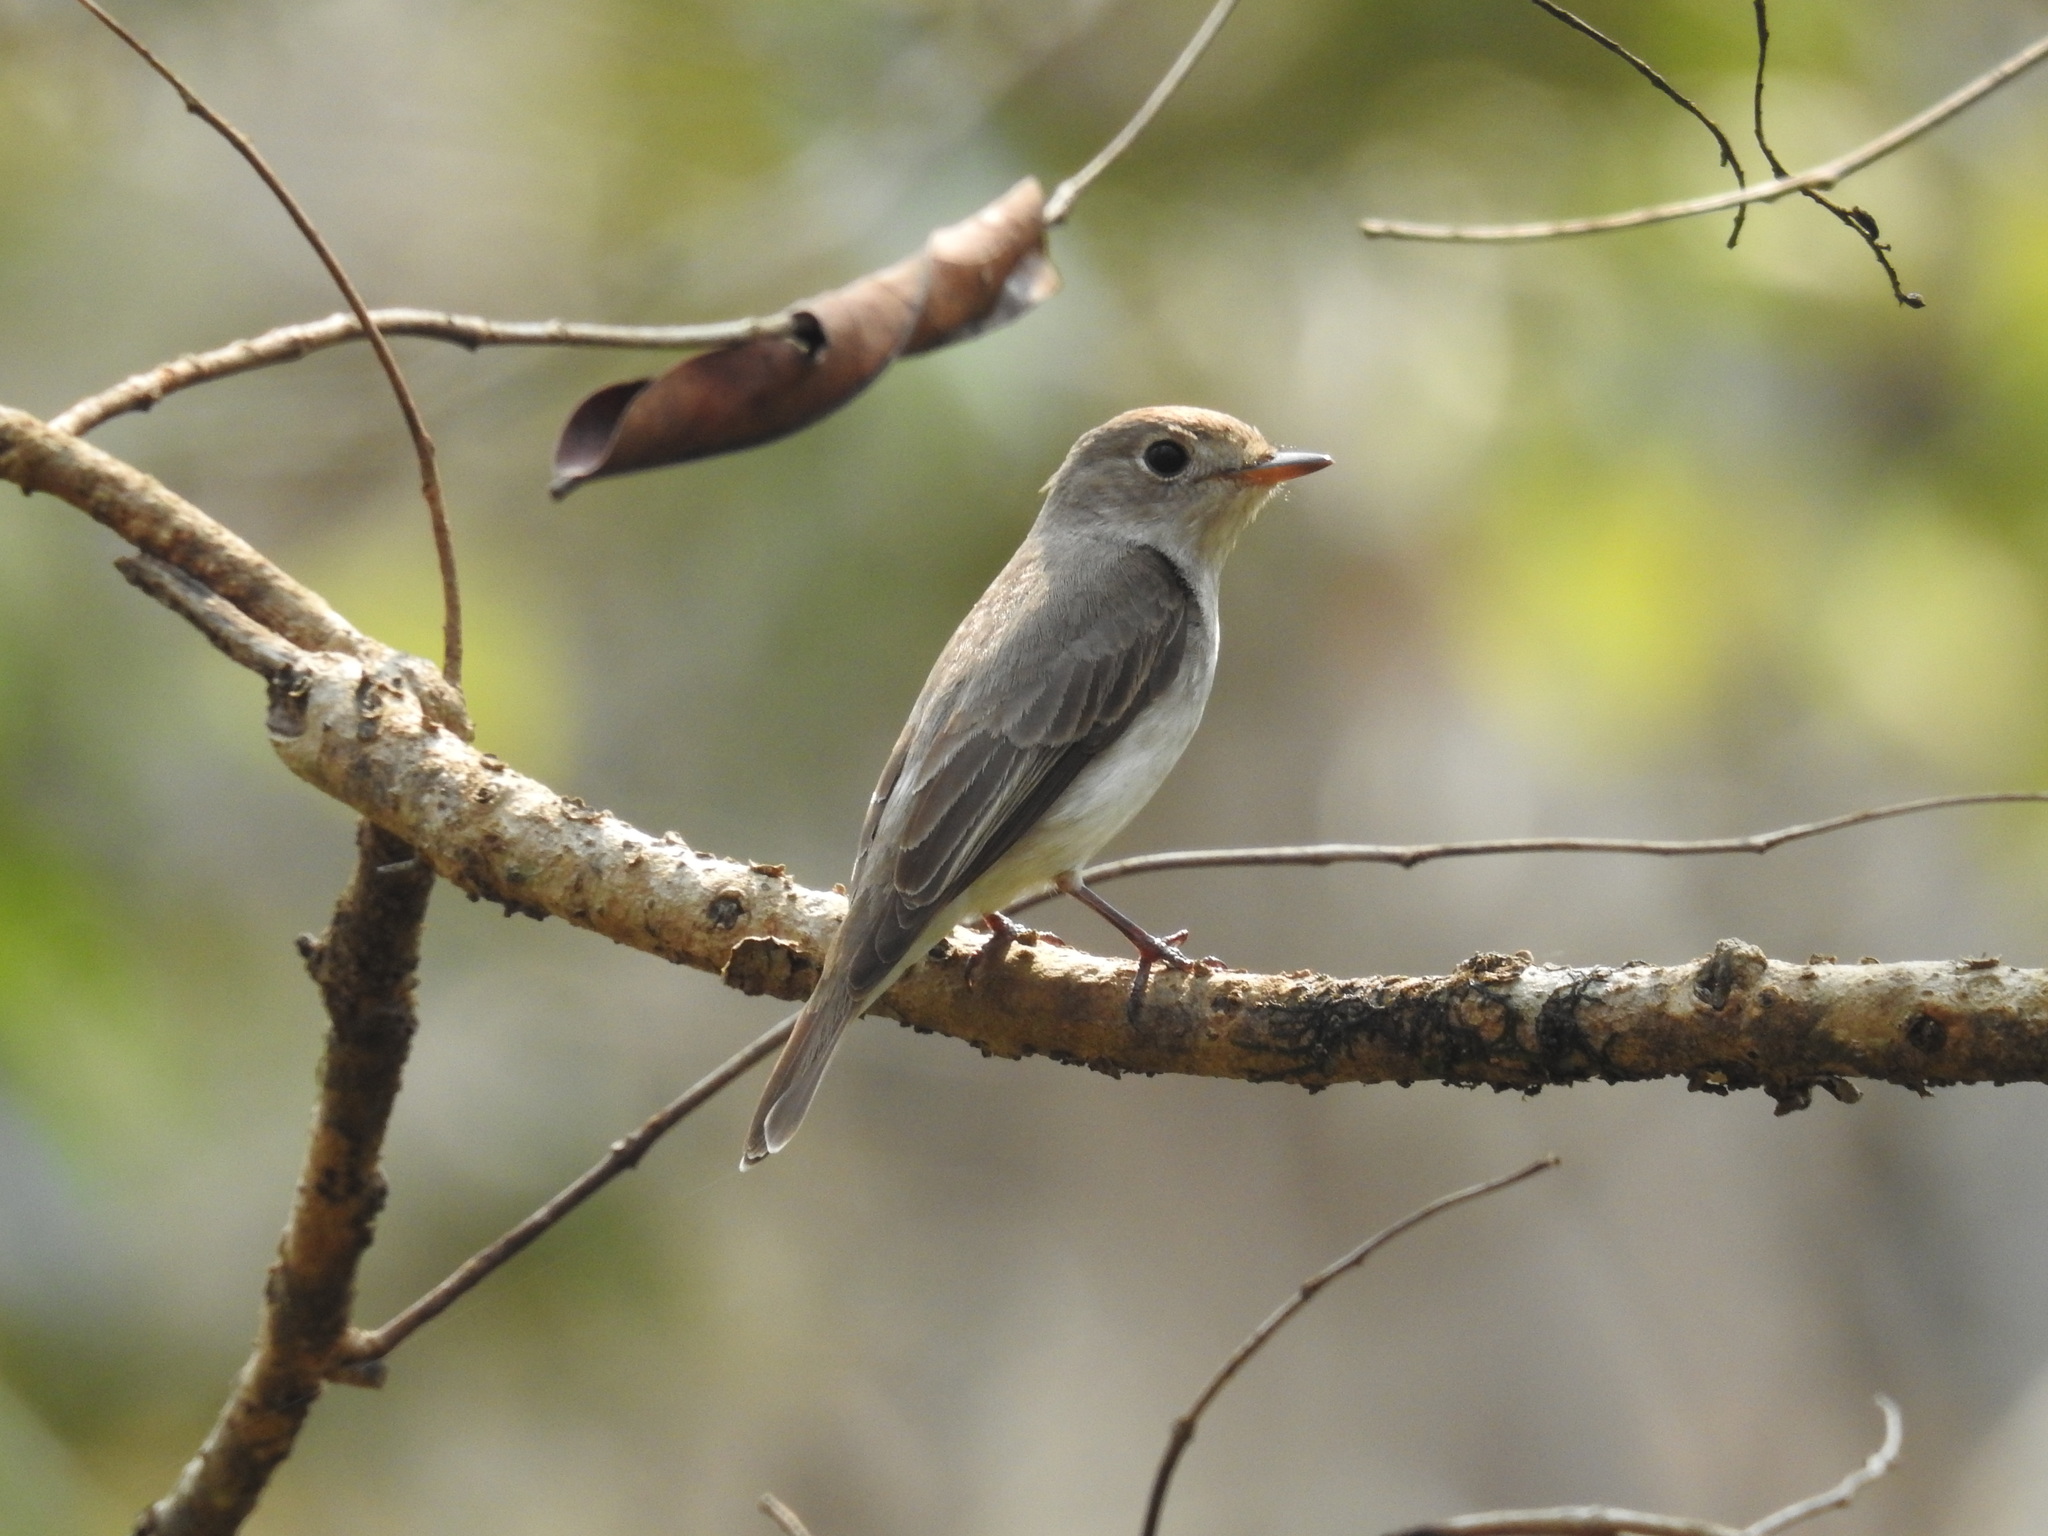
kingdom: Animalia
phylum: Chordata
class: Aves
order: Passeriformes
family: Muscicapidae
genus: Muscicapa
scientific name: Muscicapa latirostris
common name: Asian brown flycatcher
